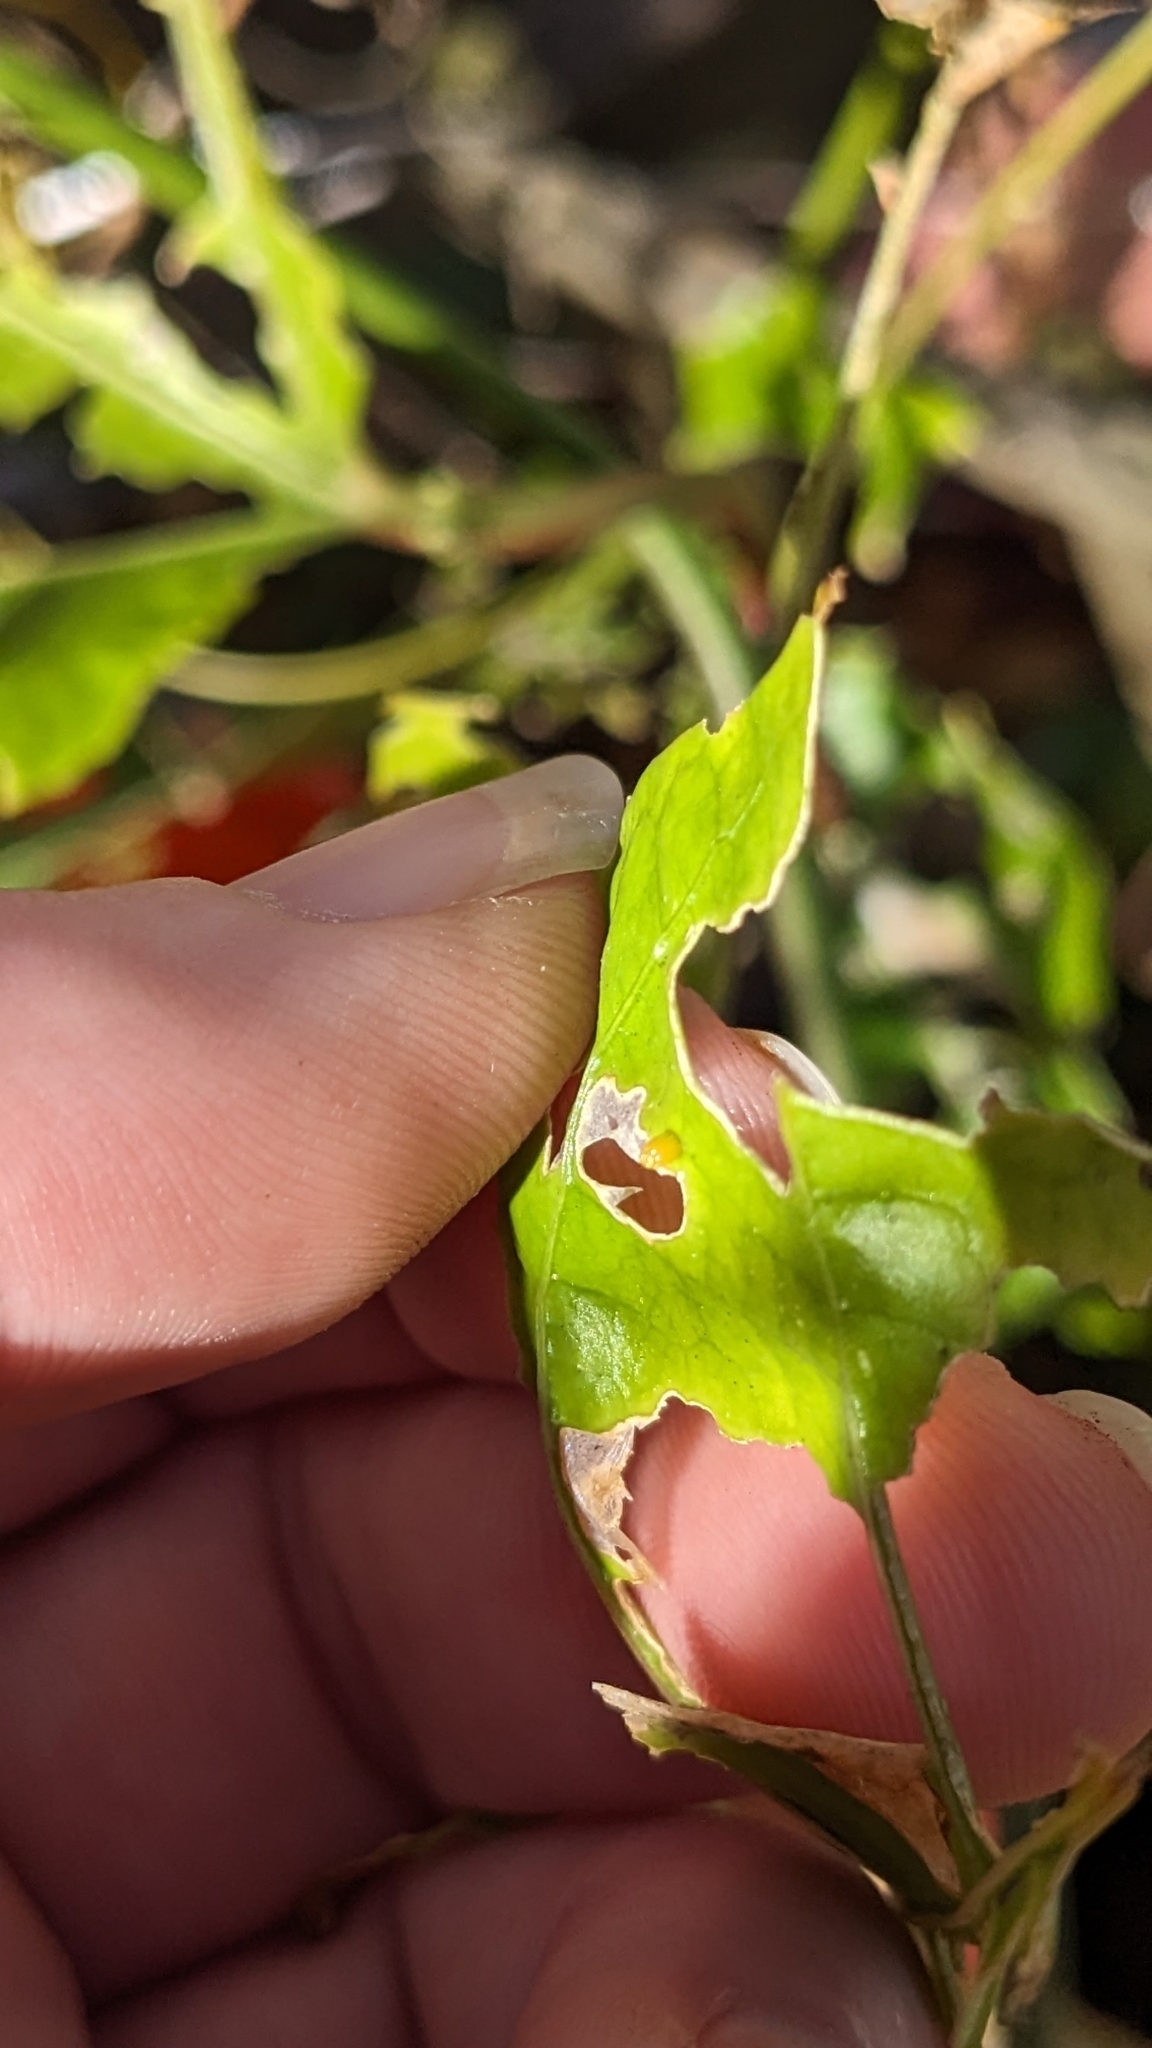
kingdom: Animalia
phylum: Arthropoda
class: Insecta
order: Lepidoptera
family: Nymphalidae
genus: Dione
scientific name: Dione vanillae
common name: Gulf fritillary
